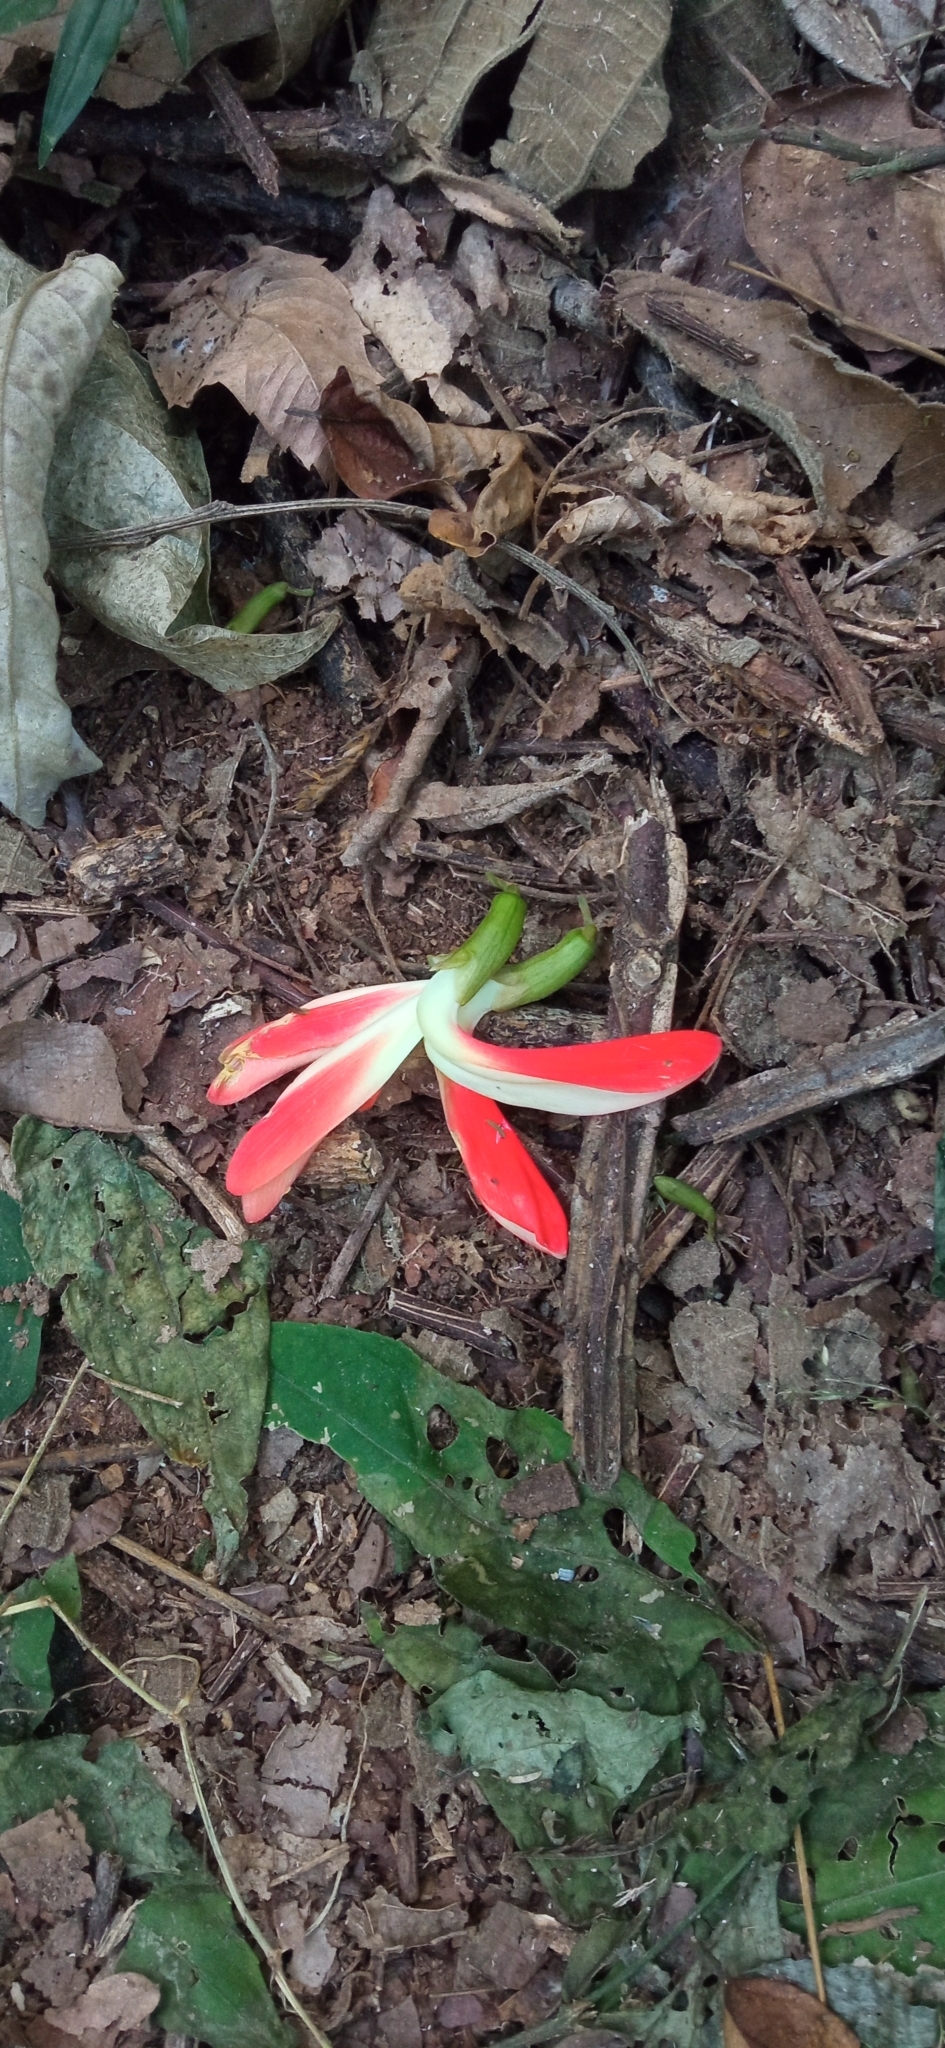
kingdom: Plantae
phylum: Tracheophyta
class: Magnoliopsida
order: Fabales
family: Fabaceae
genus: Camptosema
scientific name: Camptosema spectabile
